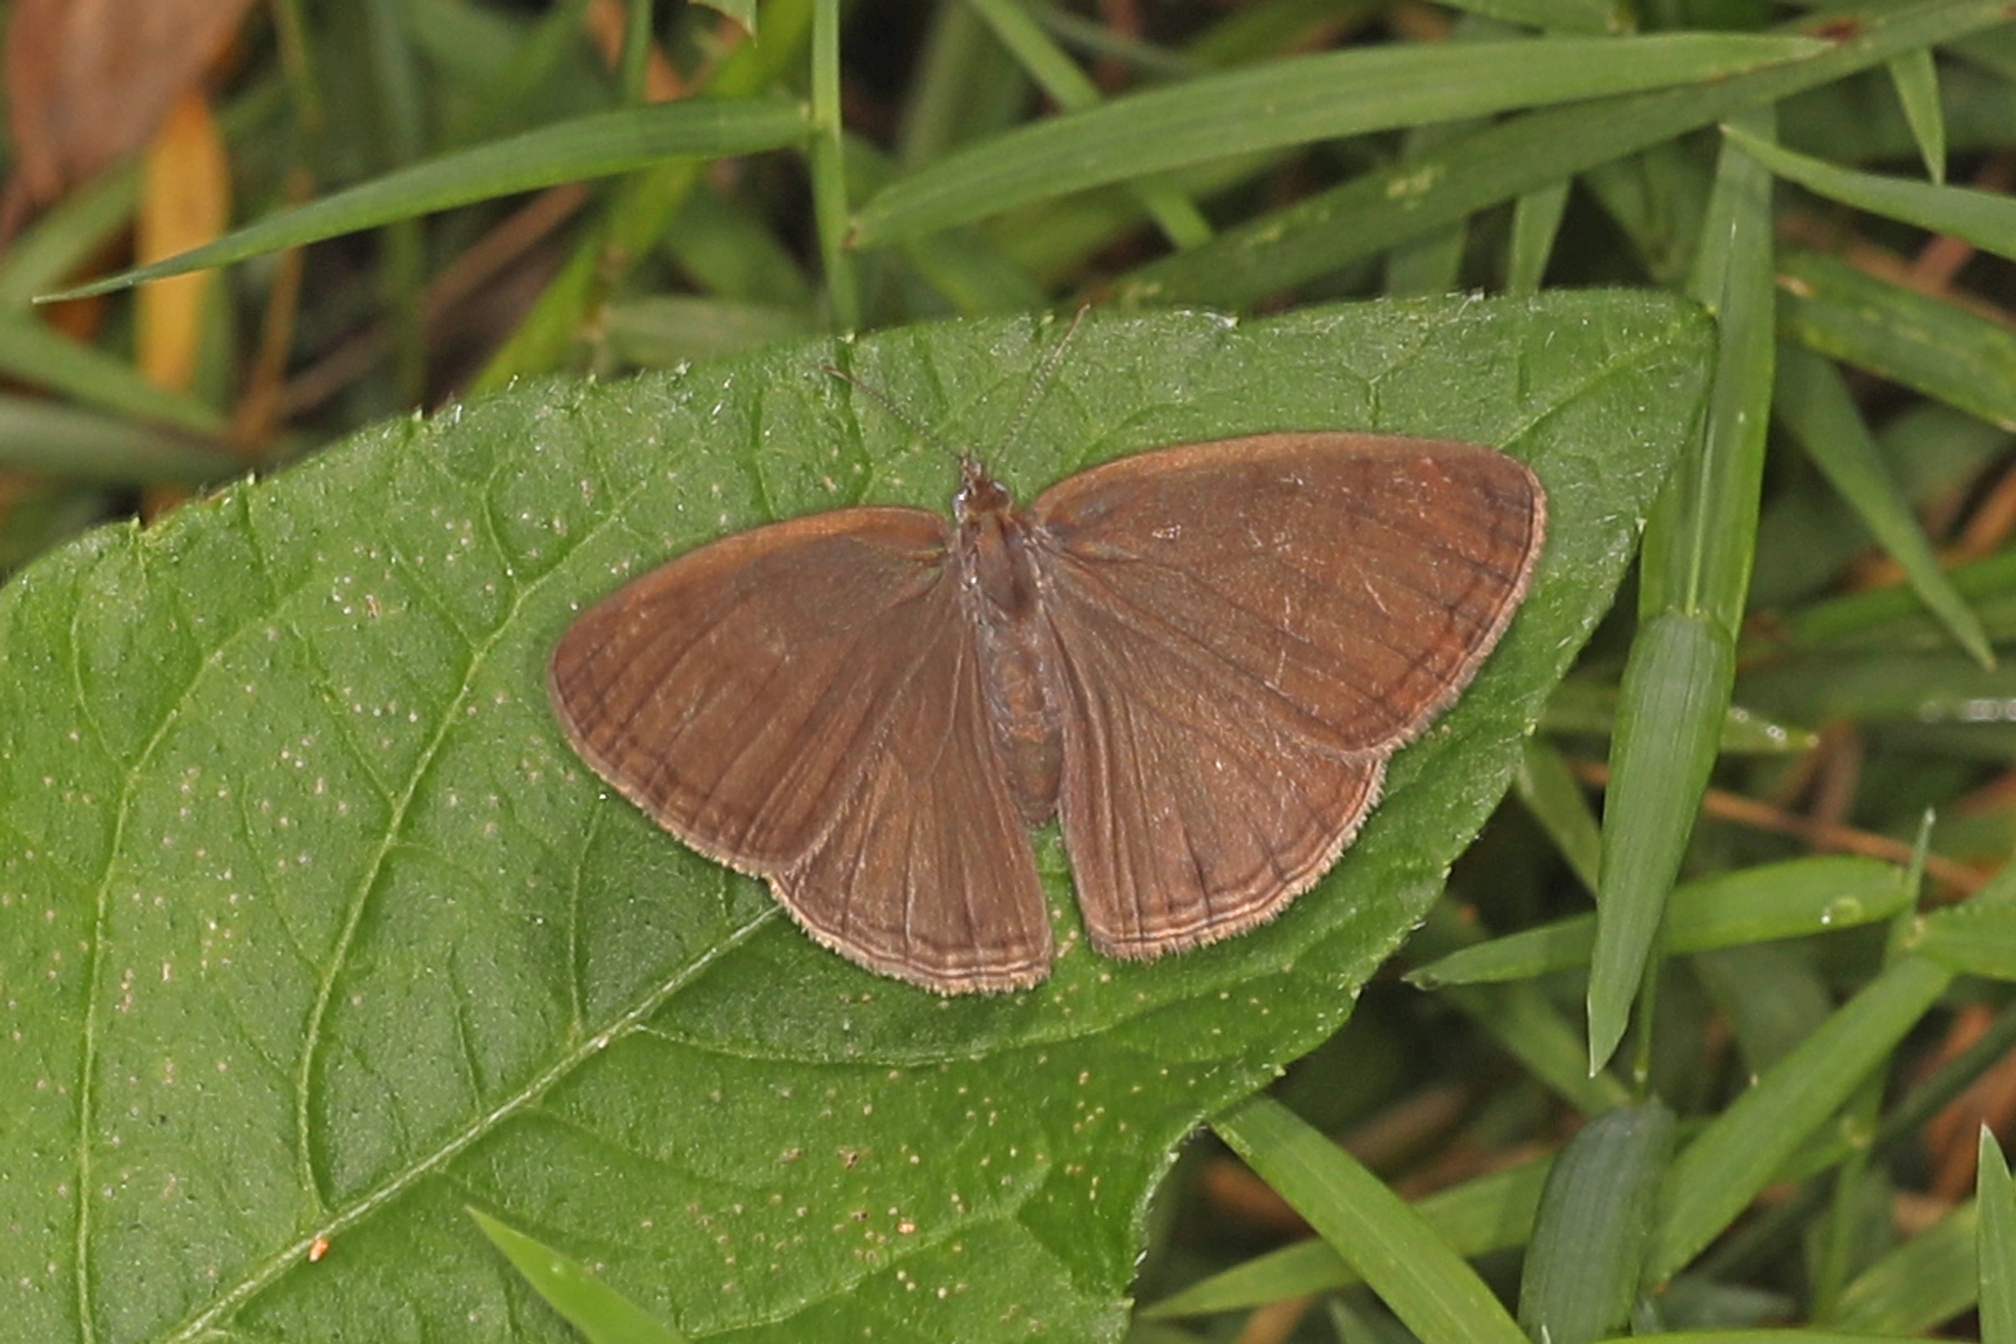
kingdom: Animalia
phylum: Arthropoda
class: Insecta
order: Lepidoptera
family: Nymphalidae
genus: Hermeuptychia
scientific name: Hermeuptychia hermes
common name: Hermes satyr
